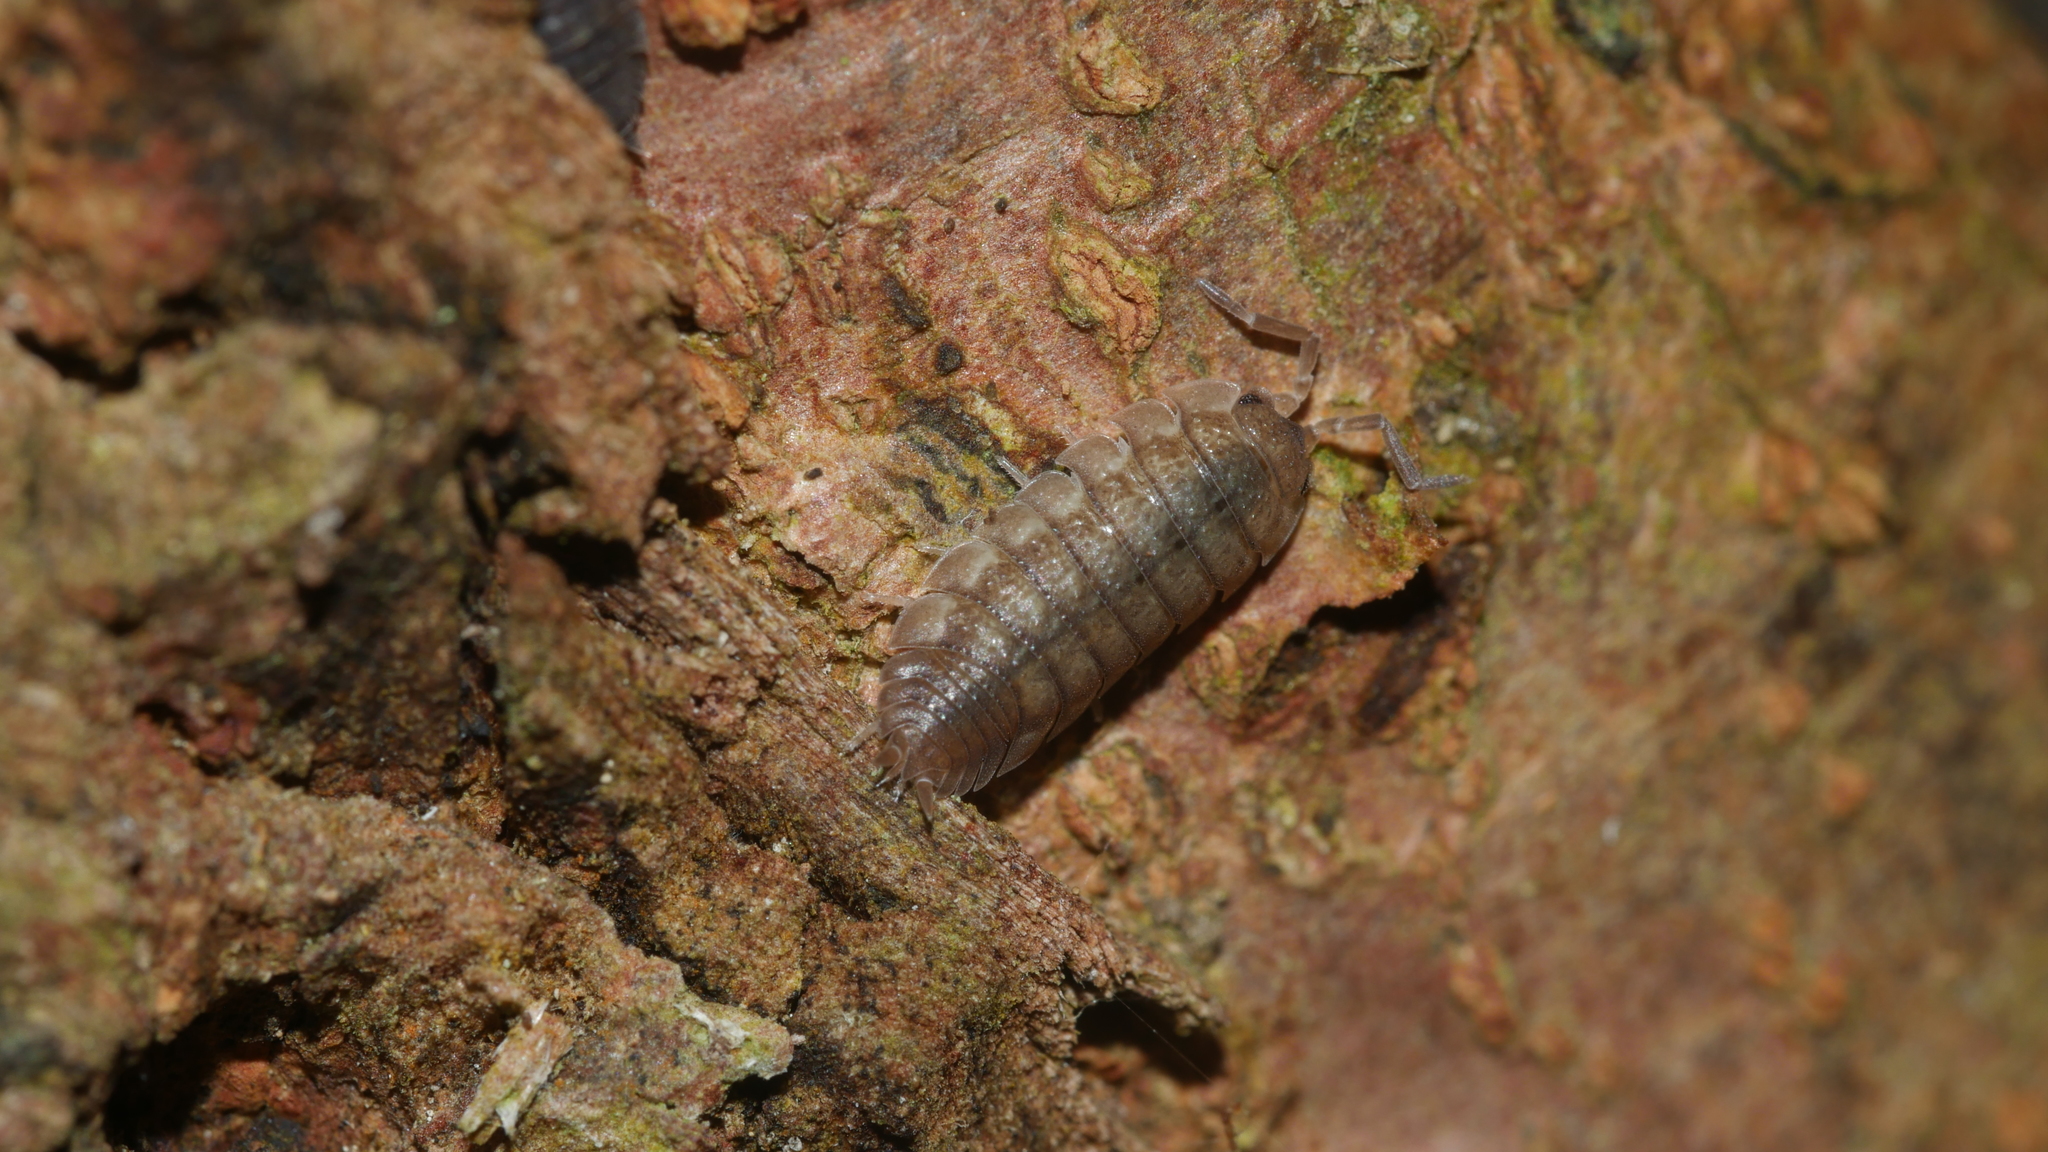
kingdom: Animalia
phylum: Arthropoda
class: Malacostraca
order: Isopoda
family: Porcellionidae
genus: Porcellio
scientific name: Porcellio scaber
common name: Common rough woodlouse
